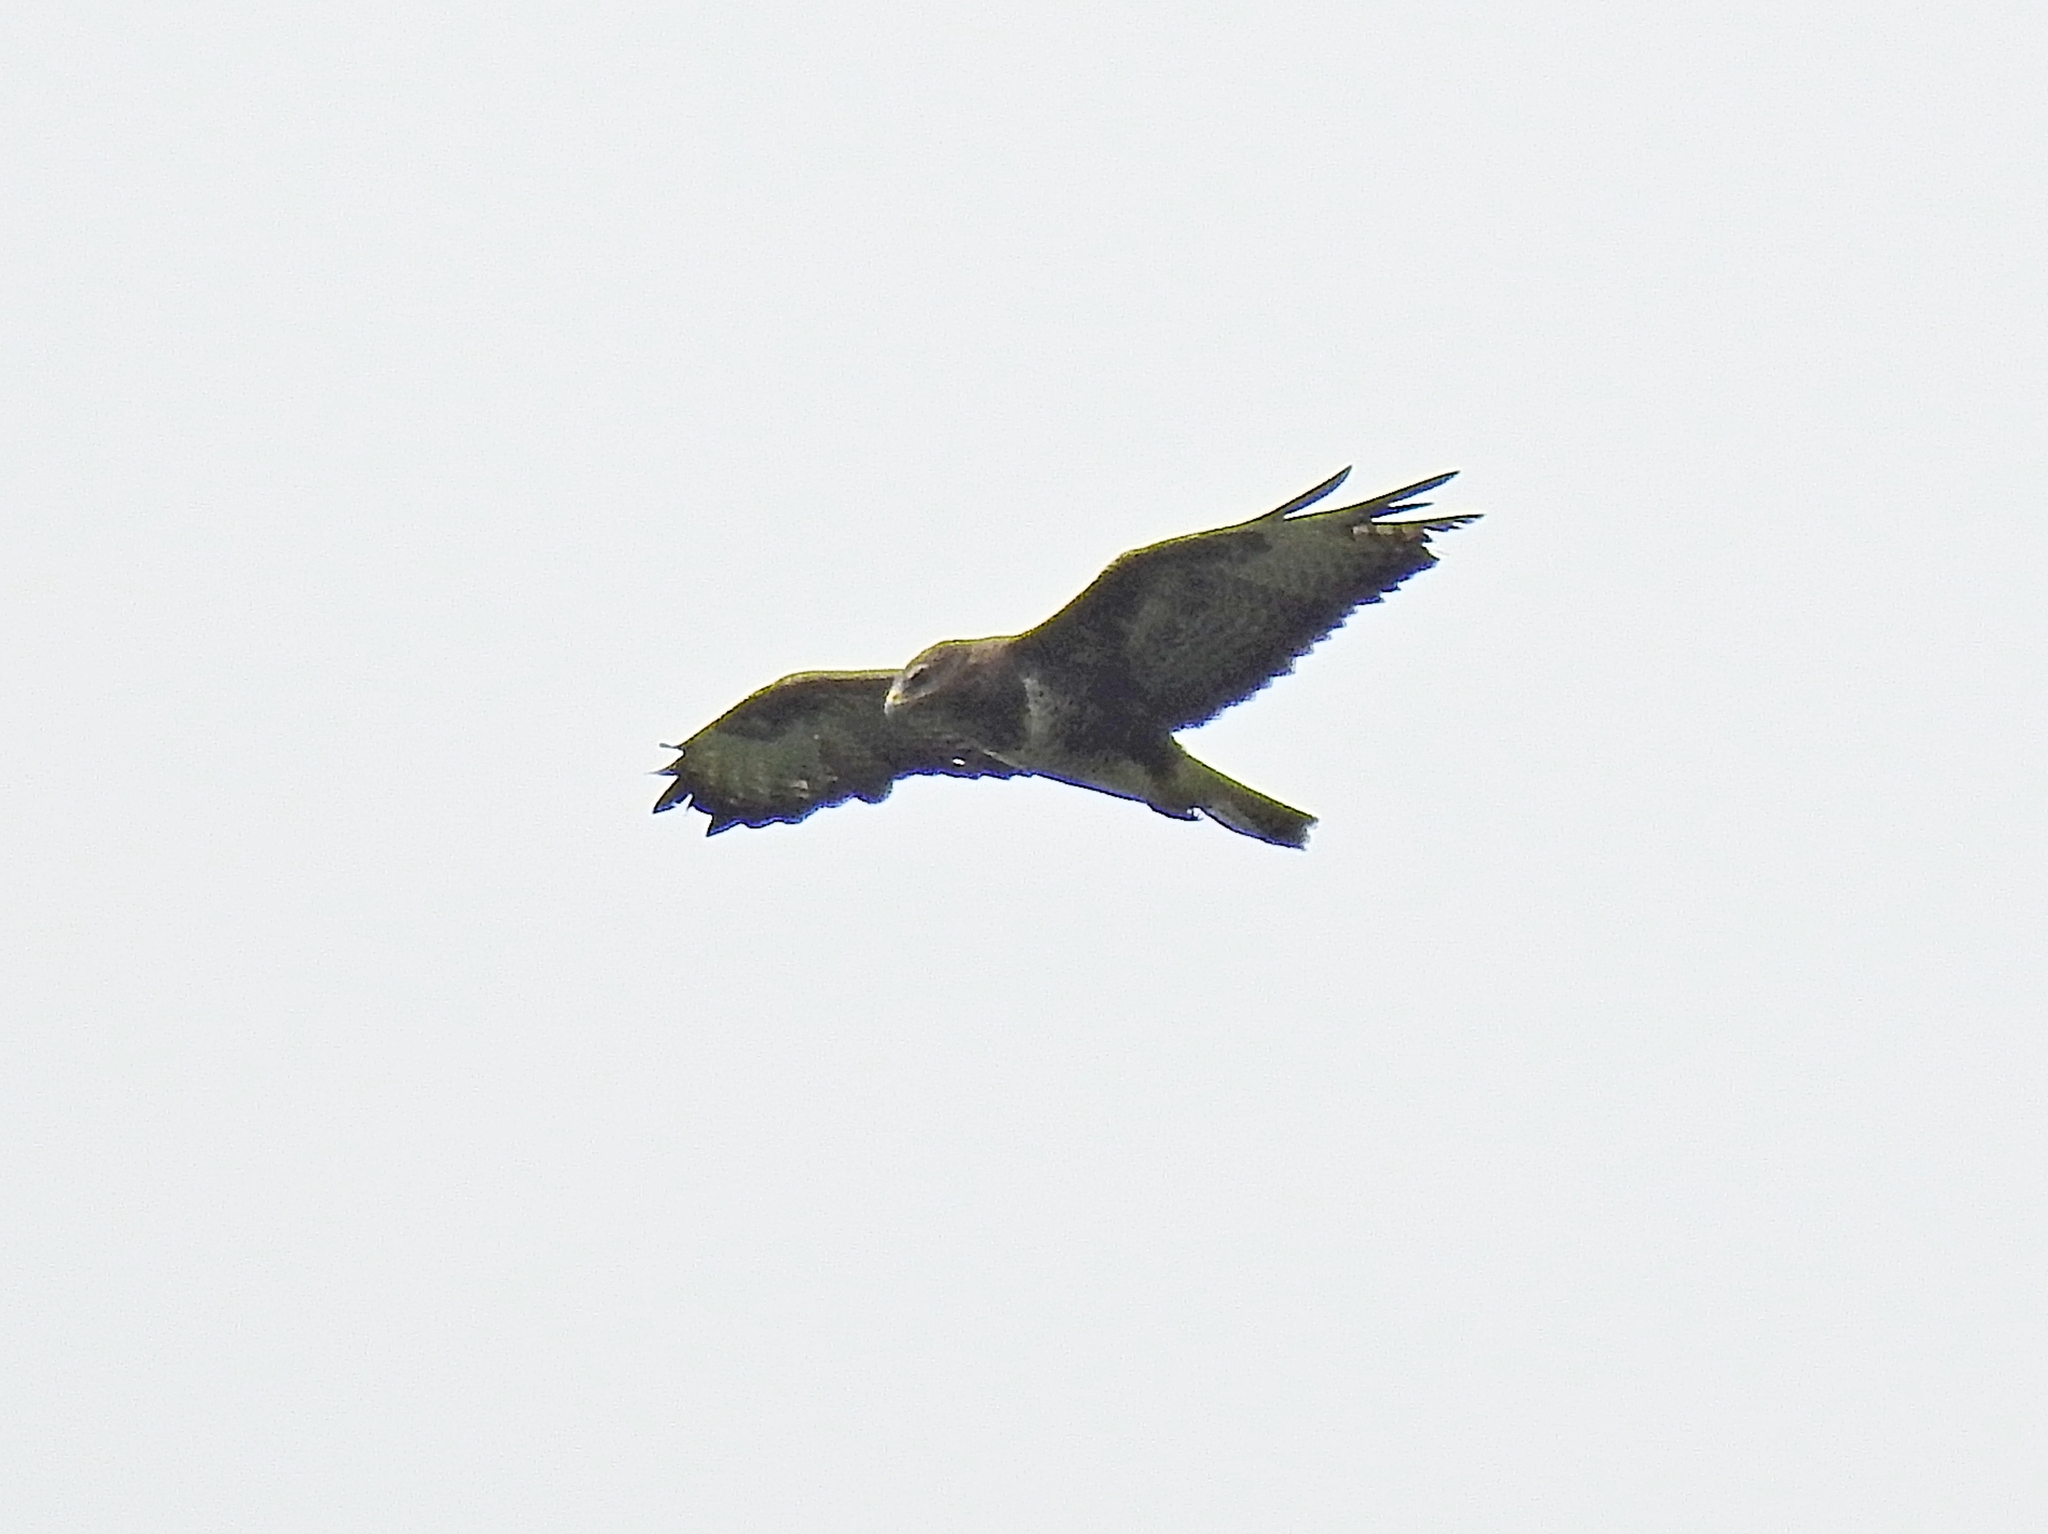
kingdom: Animalia
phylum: Chordata
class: Aves
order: Accipitriformes
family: Accipitridae
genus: Buteo
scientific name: Buteo buteo
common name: Common buzzard
